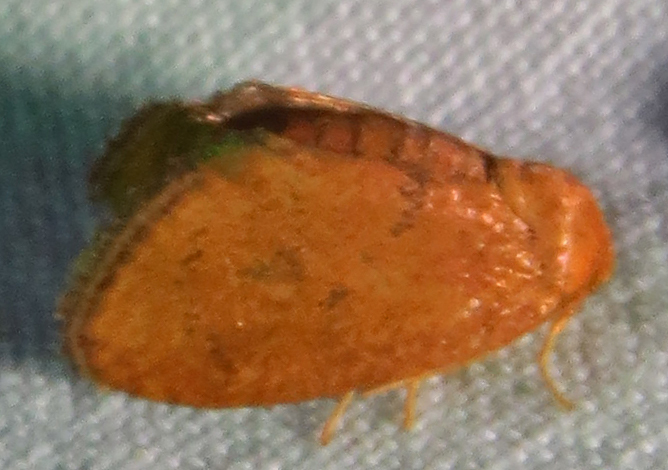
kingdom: Animalia
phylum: Arthropoda
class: Insecta
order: Lepidoptera
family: Limacodidae
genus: Heterogenea
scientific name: Heterogenea shurtleffi
